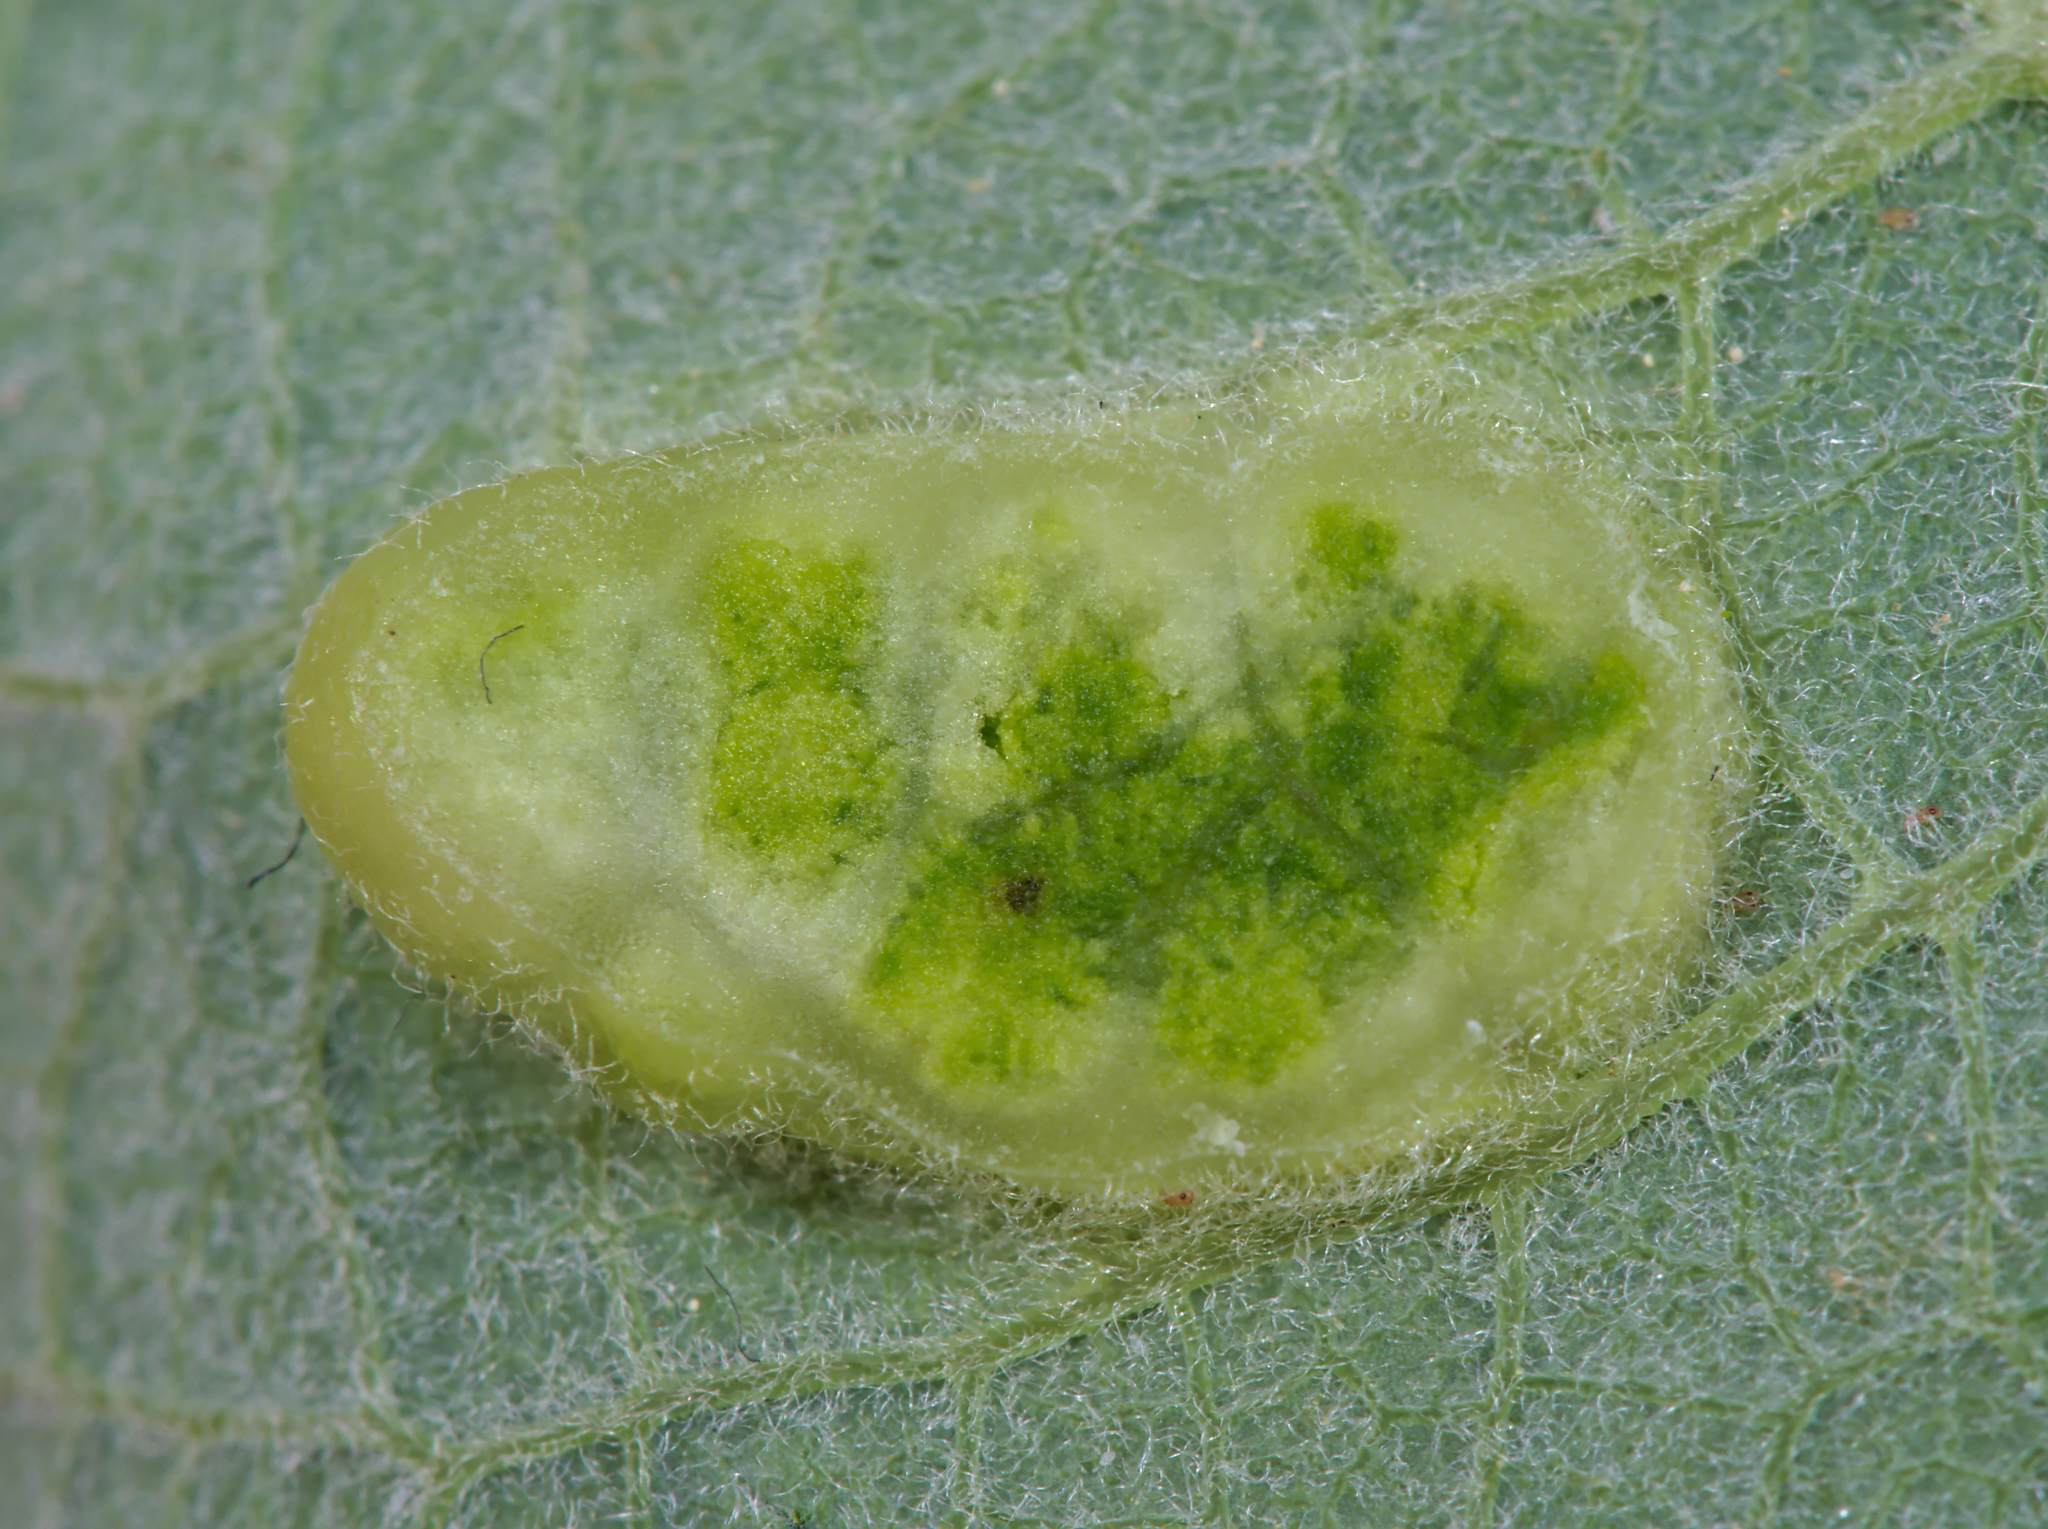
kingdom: Animalia
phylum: Arthropoda
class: Insecta
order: Hymenoptera
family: Tenthredinidae
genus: Pontania
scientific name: Pontania bridgmanii
